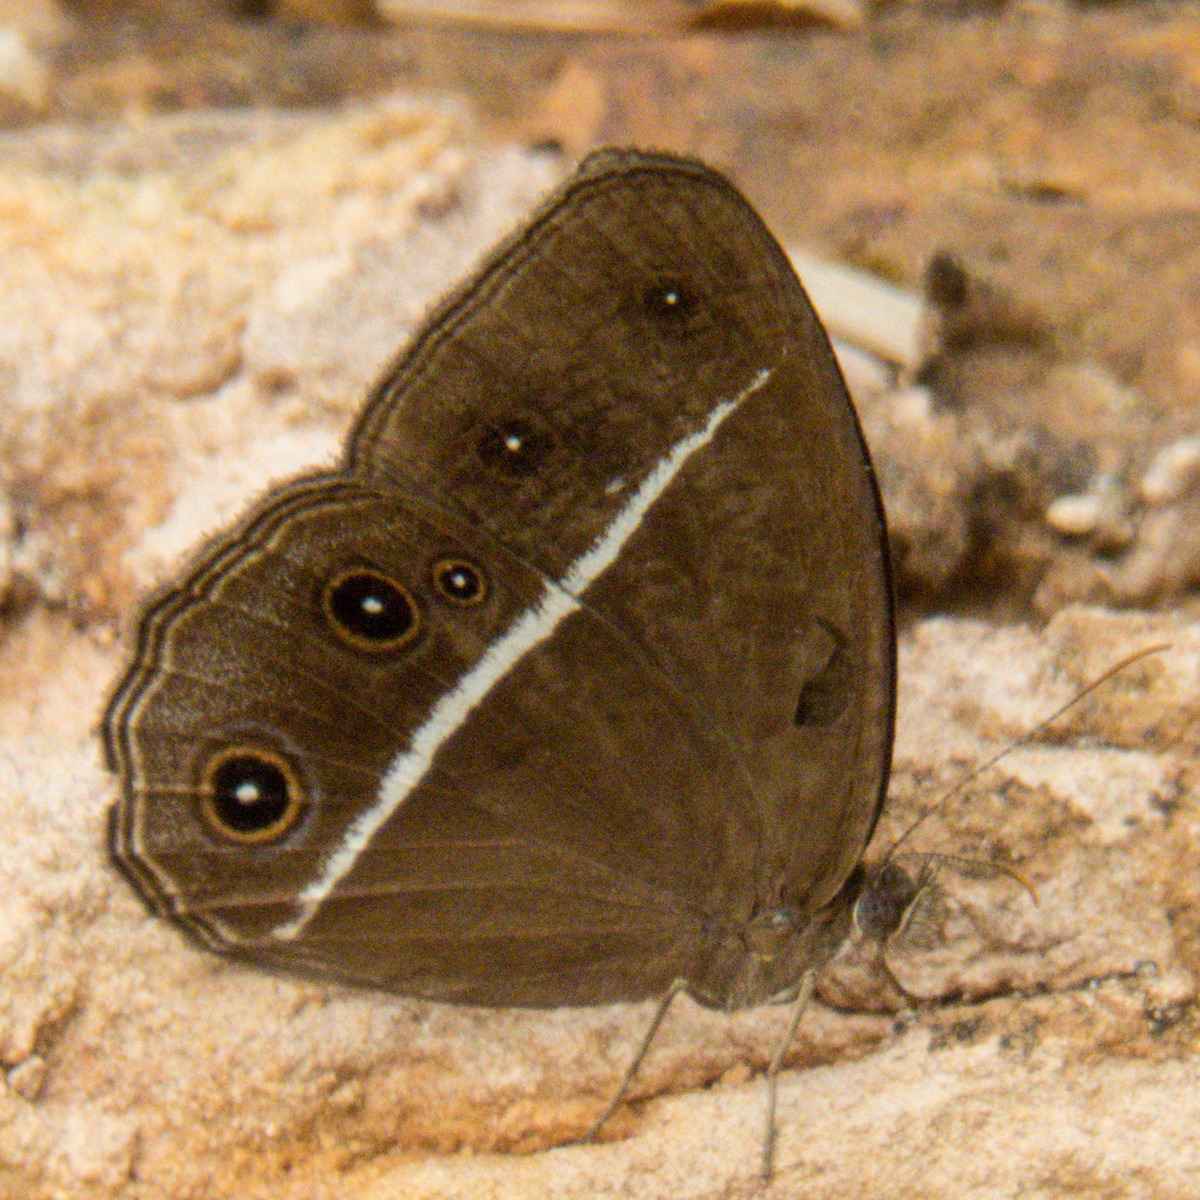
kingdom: Animalia
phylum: Arthropoda
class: Insecta
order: Lepidoptera
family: Nymphalidae
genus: Orsotriaena
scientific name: Orsotriaena medus
